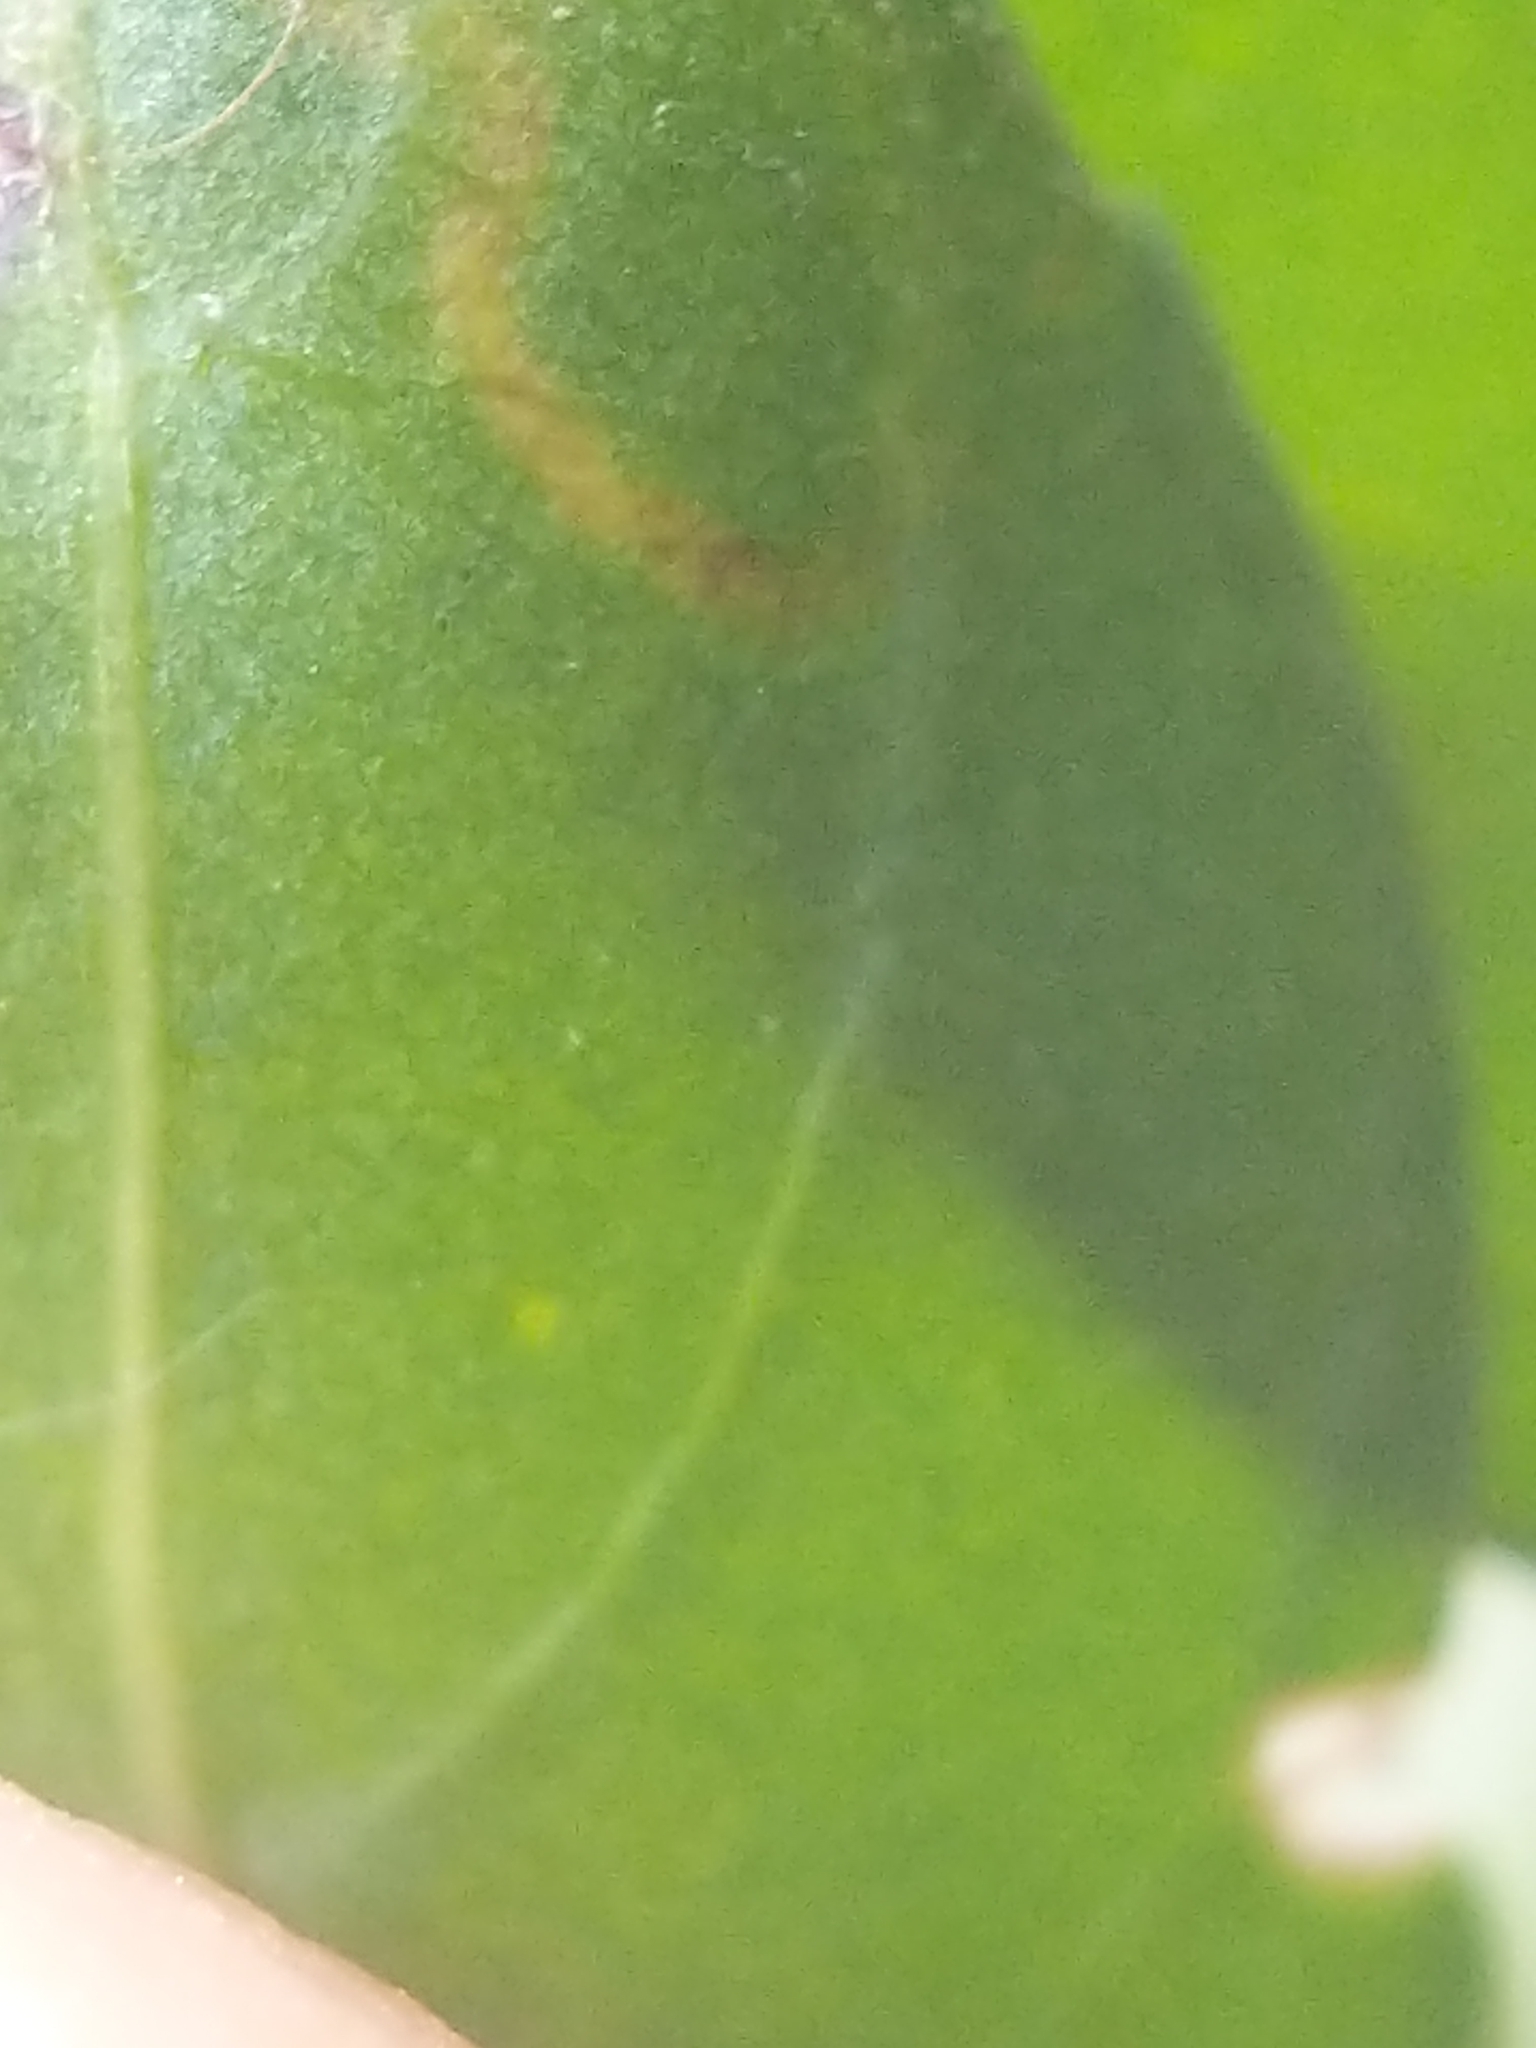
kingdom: Plantae
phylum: Tracheophyta
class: Magnoliopsida
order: Rosales
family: Rhamnaceae
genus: Condalia
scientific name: Condalia hookeri
